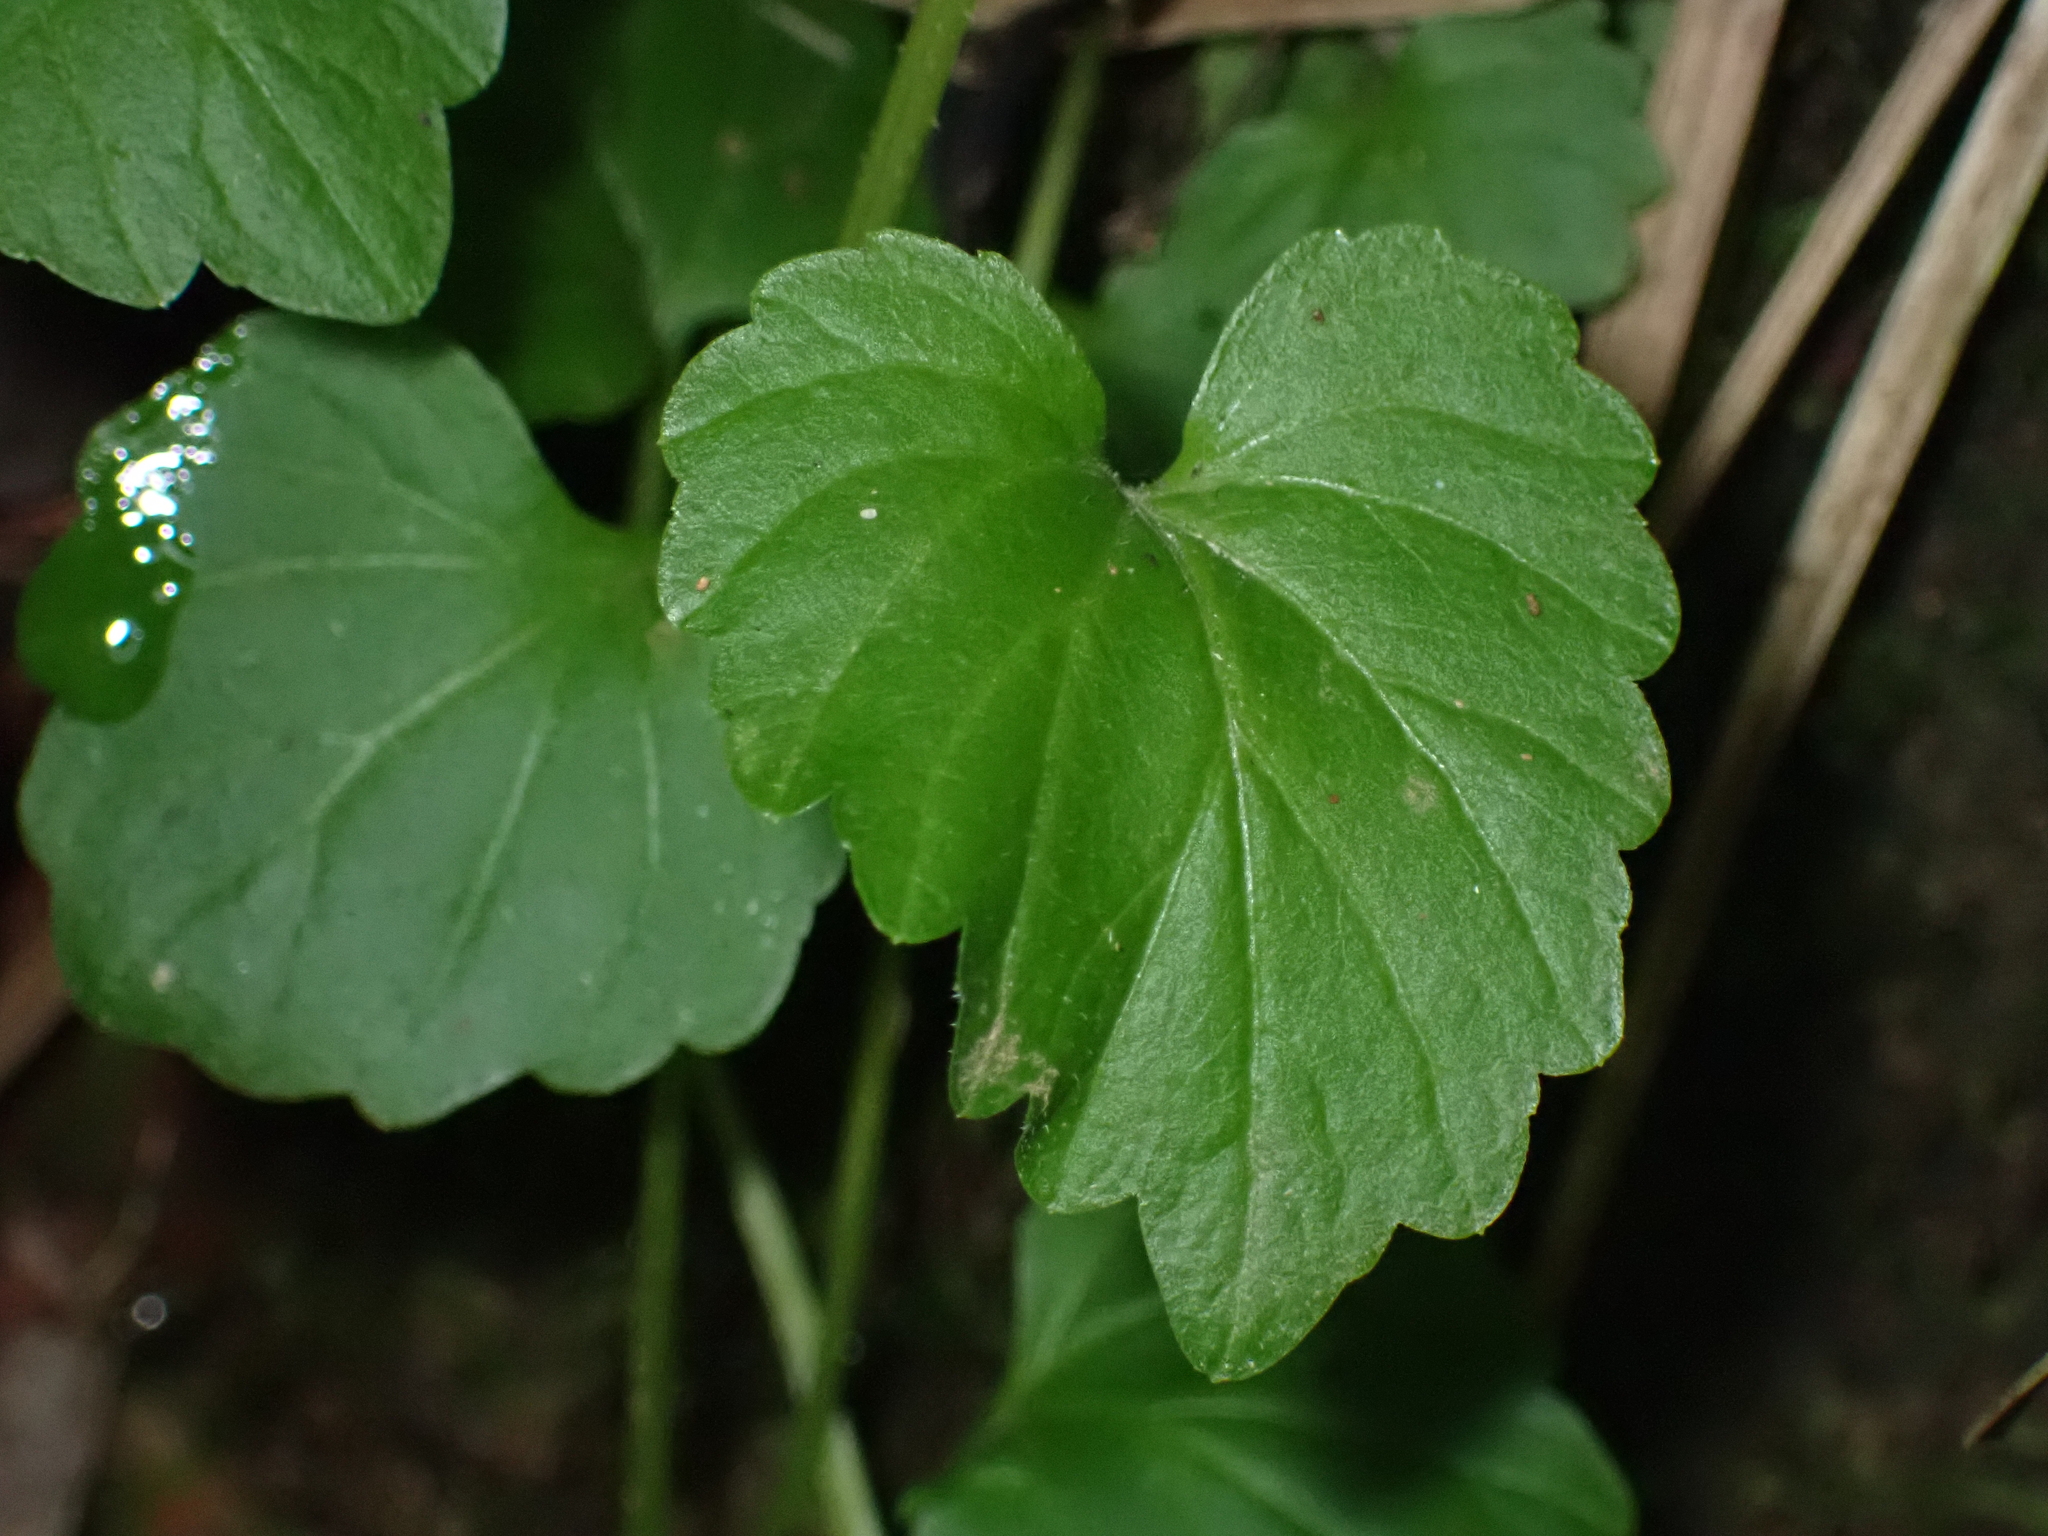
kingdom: Plantae
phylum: Tracheophyta
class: Magnoliopsida
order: Asterales
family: Campanulaceae
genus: Lobelia
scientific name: Lobelia trigonocaulis
